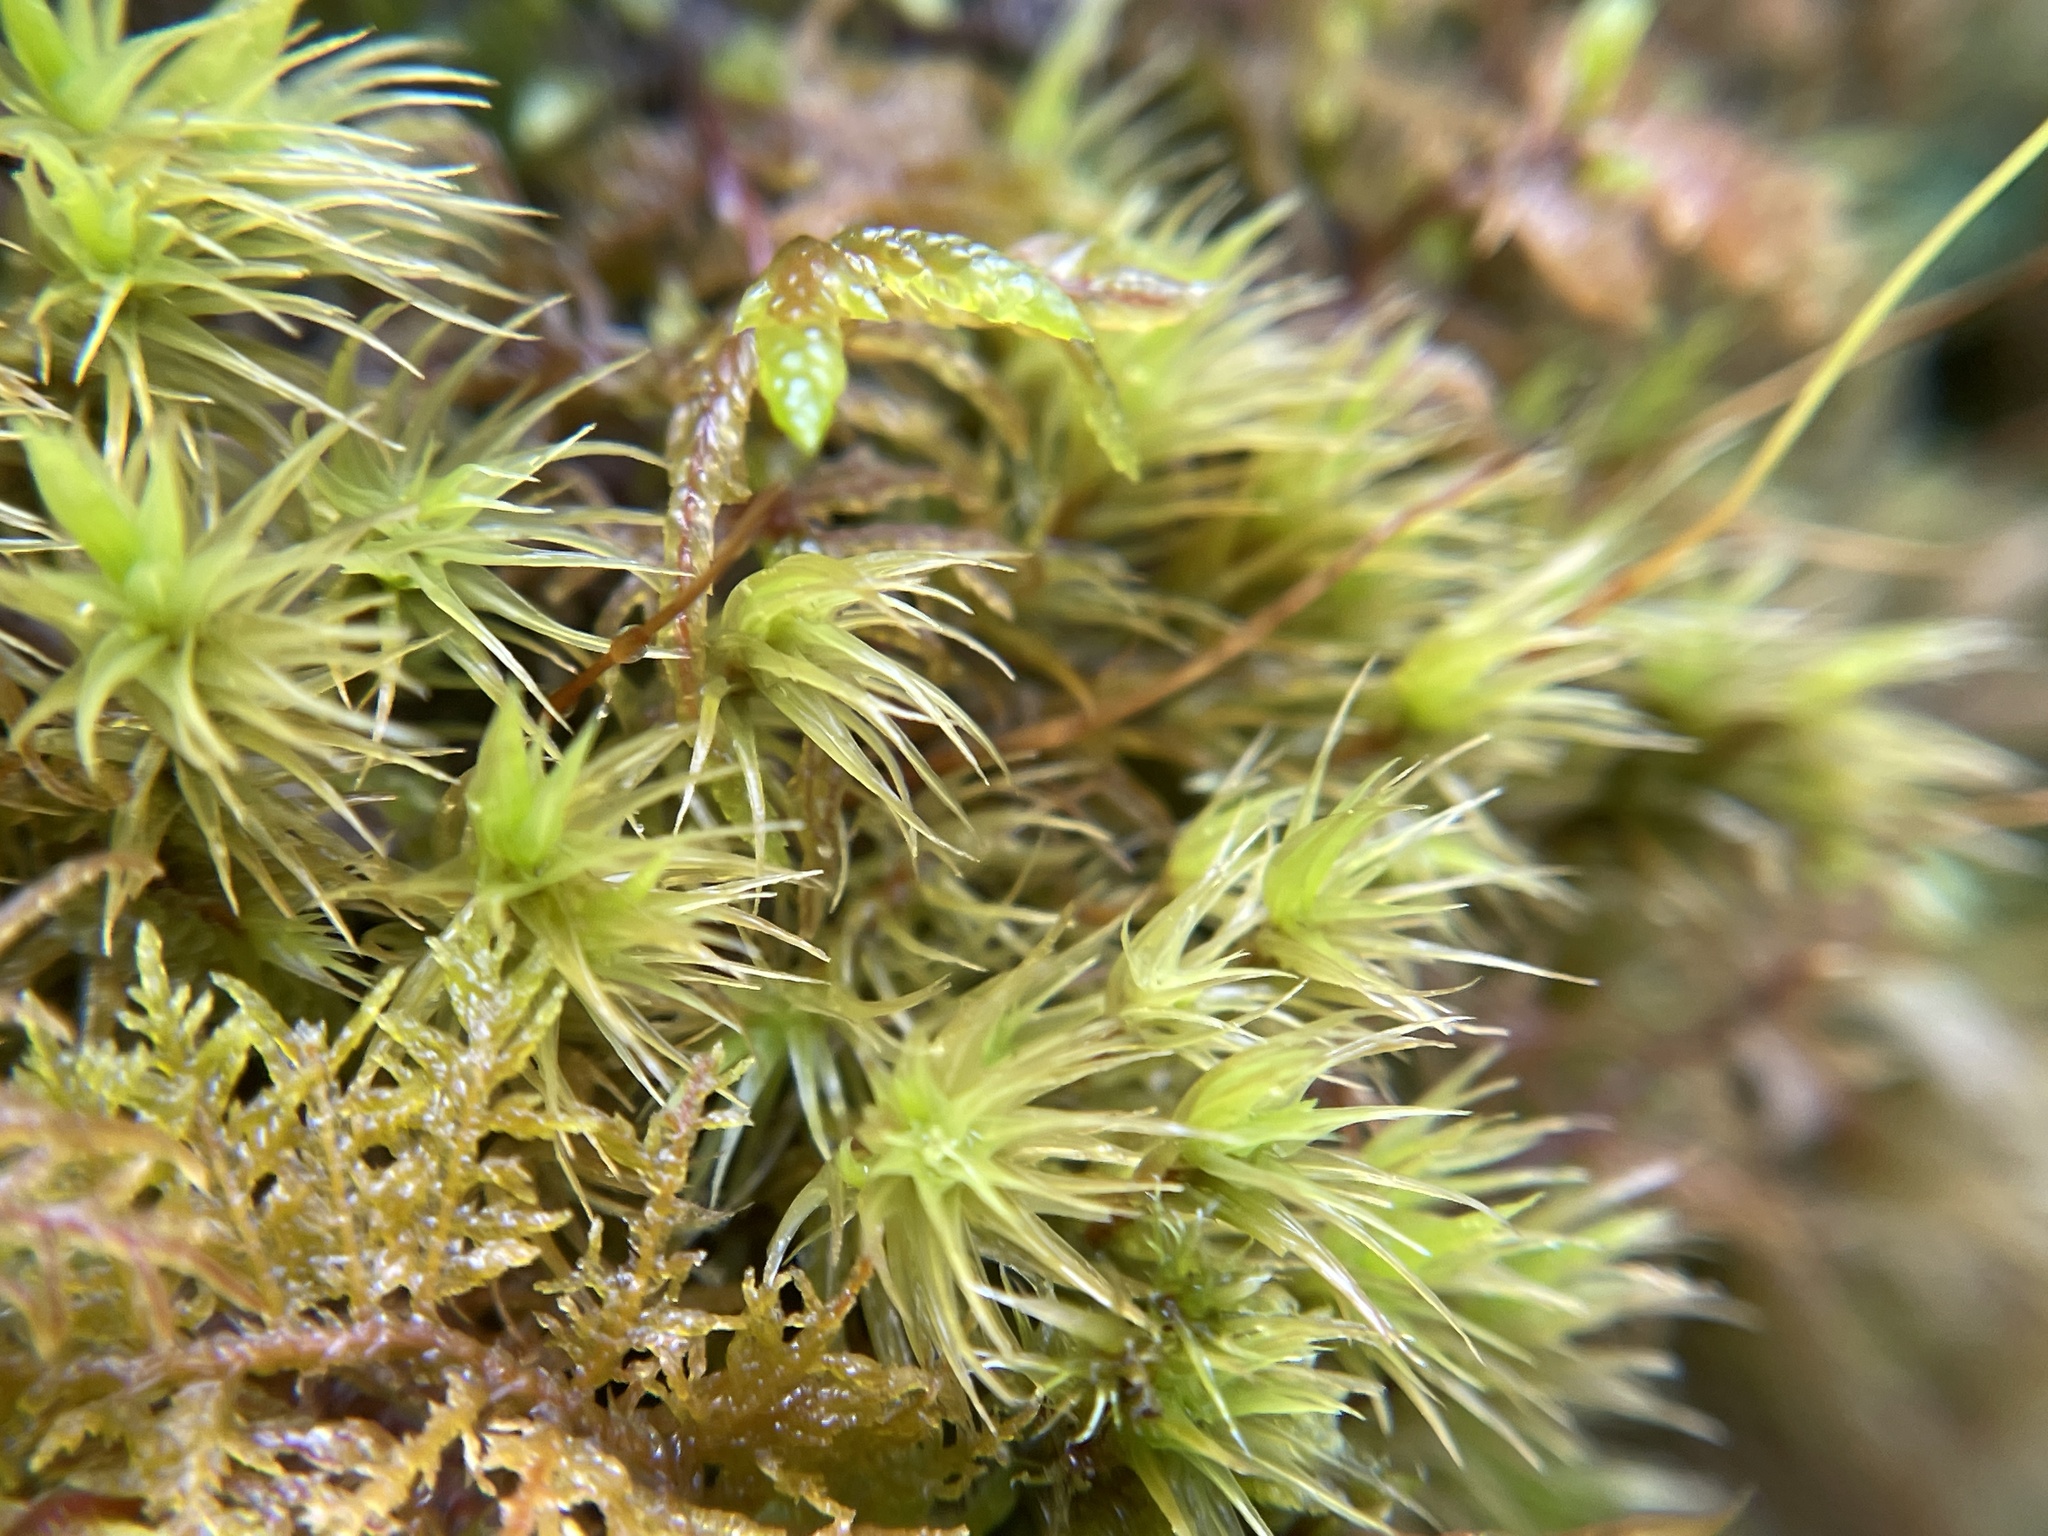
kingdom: Plantae
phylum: Bryophyta
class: Bryopsida
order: Dicranales
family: Dicranaceae
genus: Dicranum
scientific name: Dicranum scoparium
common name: Broom fork-moss
